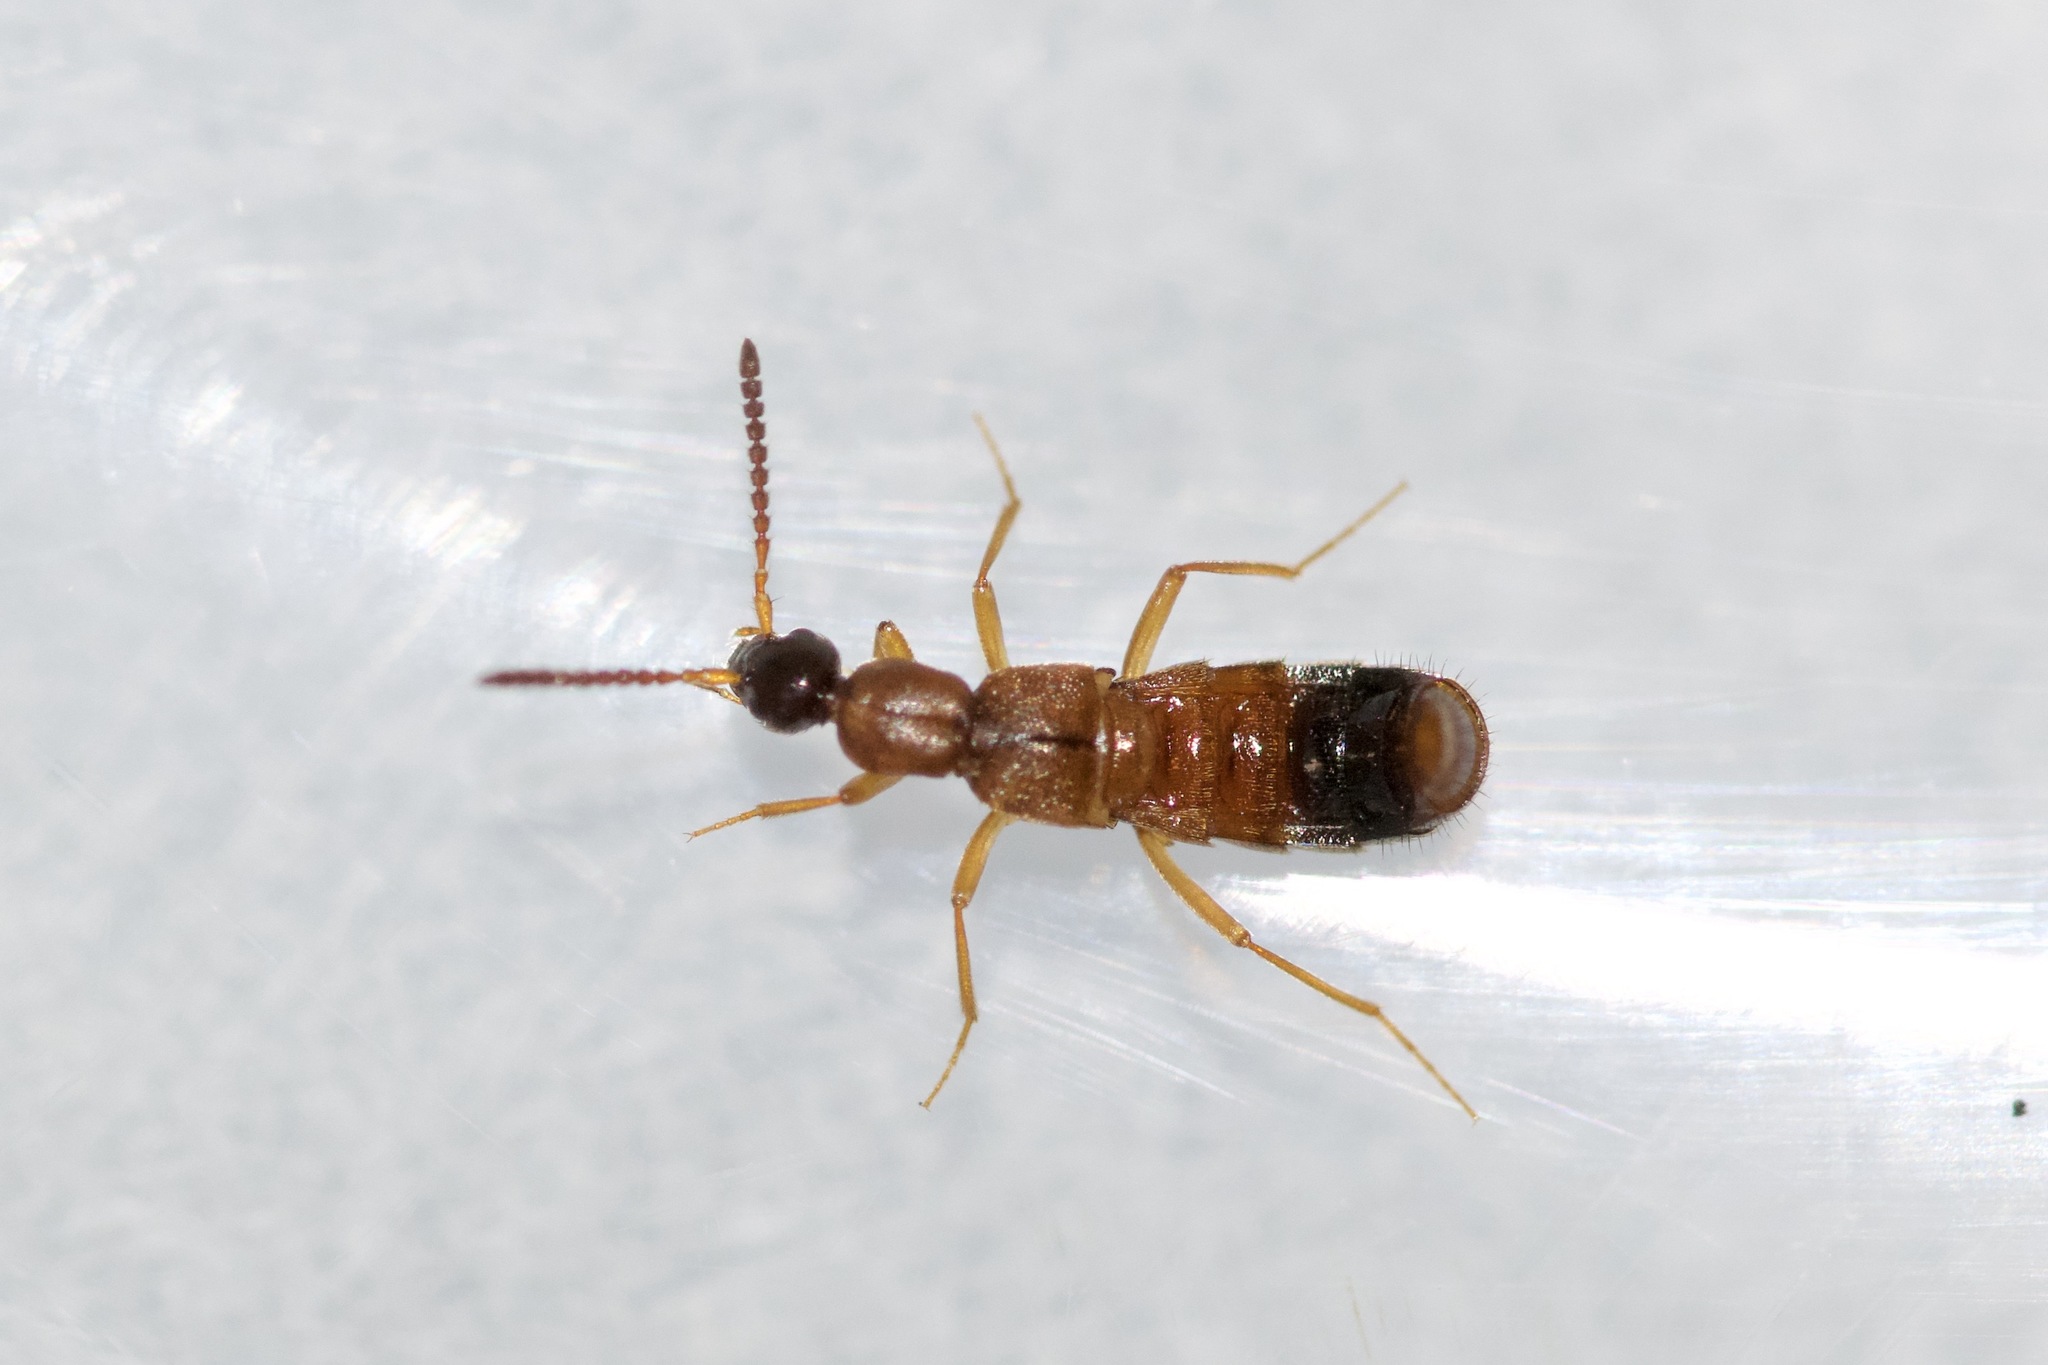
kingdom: Animalia
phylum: Arthropoda
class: Insecta
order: Coleoptera
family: Staphylinidae
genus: Drusilla
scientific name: Drusilla canaliculata
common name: Rove beetle
